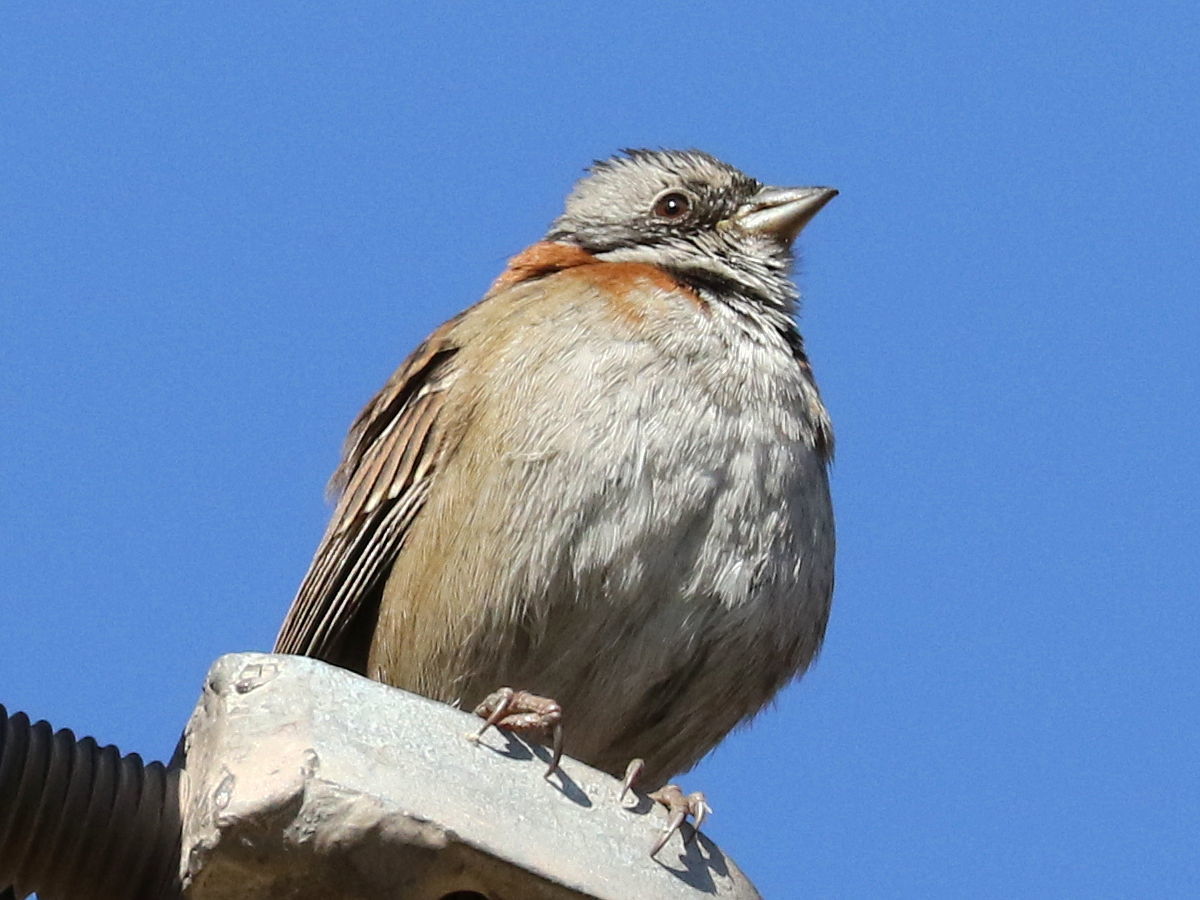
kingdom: Animalia
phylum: Chordata
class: Aves
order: Passeriformes
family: Passerellidae
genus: Zonotrichia
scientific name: Zonotrichia capensis
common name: Rufous-collared sparrow
